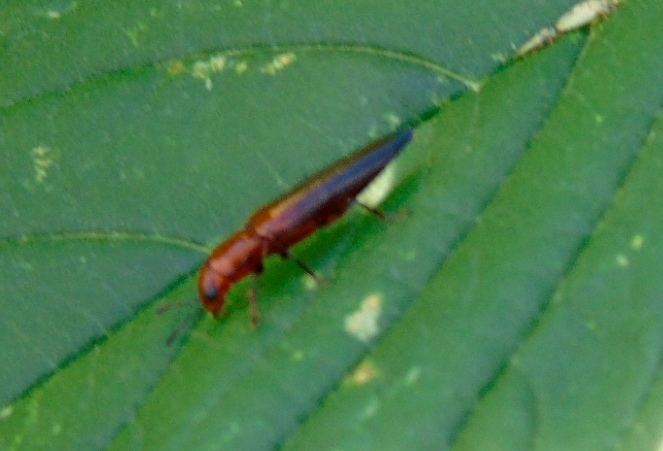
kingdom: Animalia
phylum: Arthropoda
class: Insecta
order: Coleoptera
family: Erotylidae
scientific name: Erotylidae
